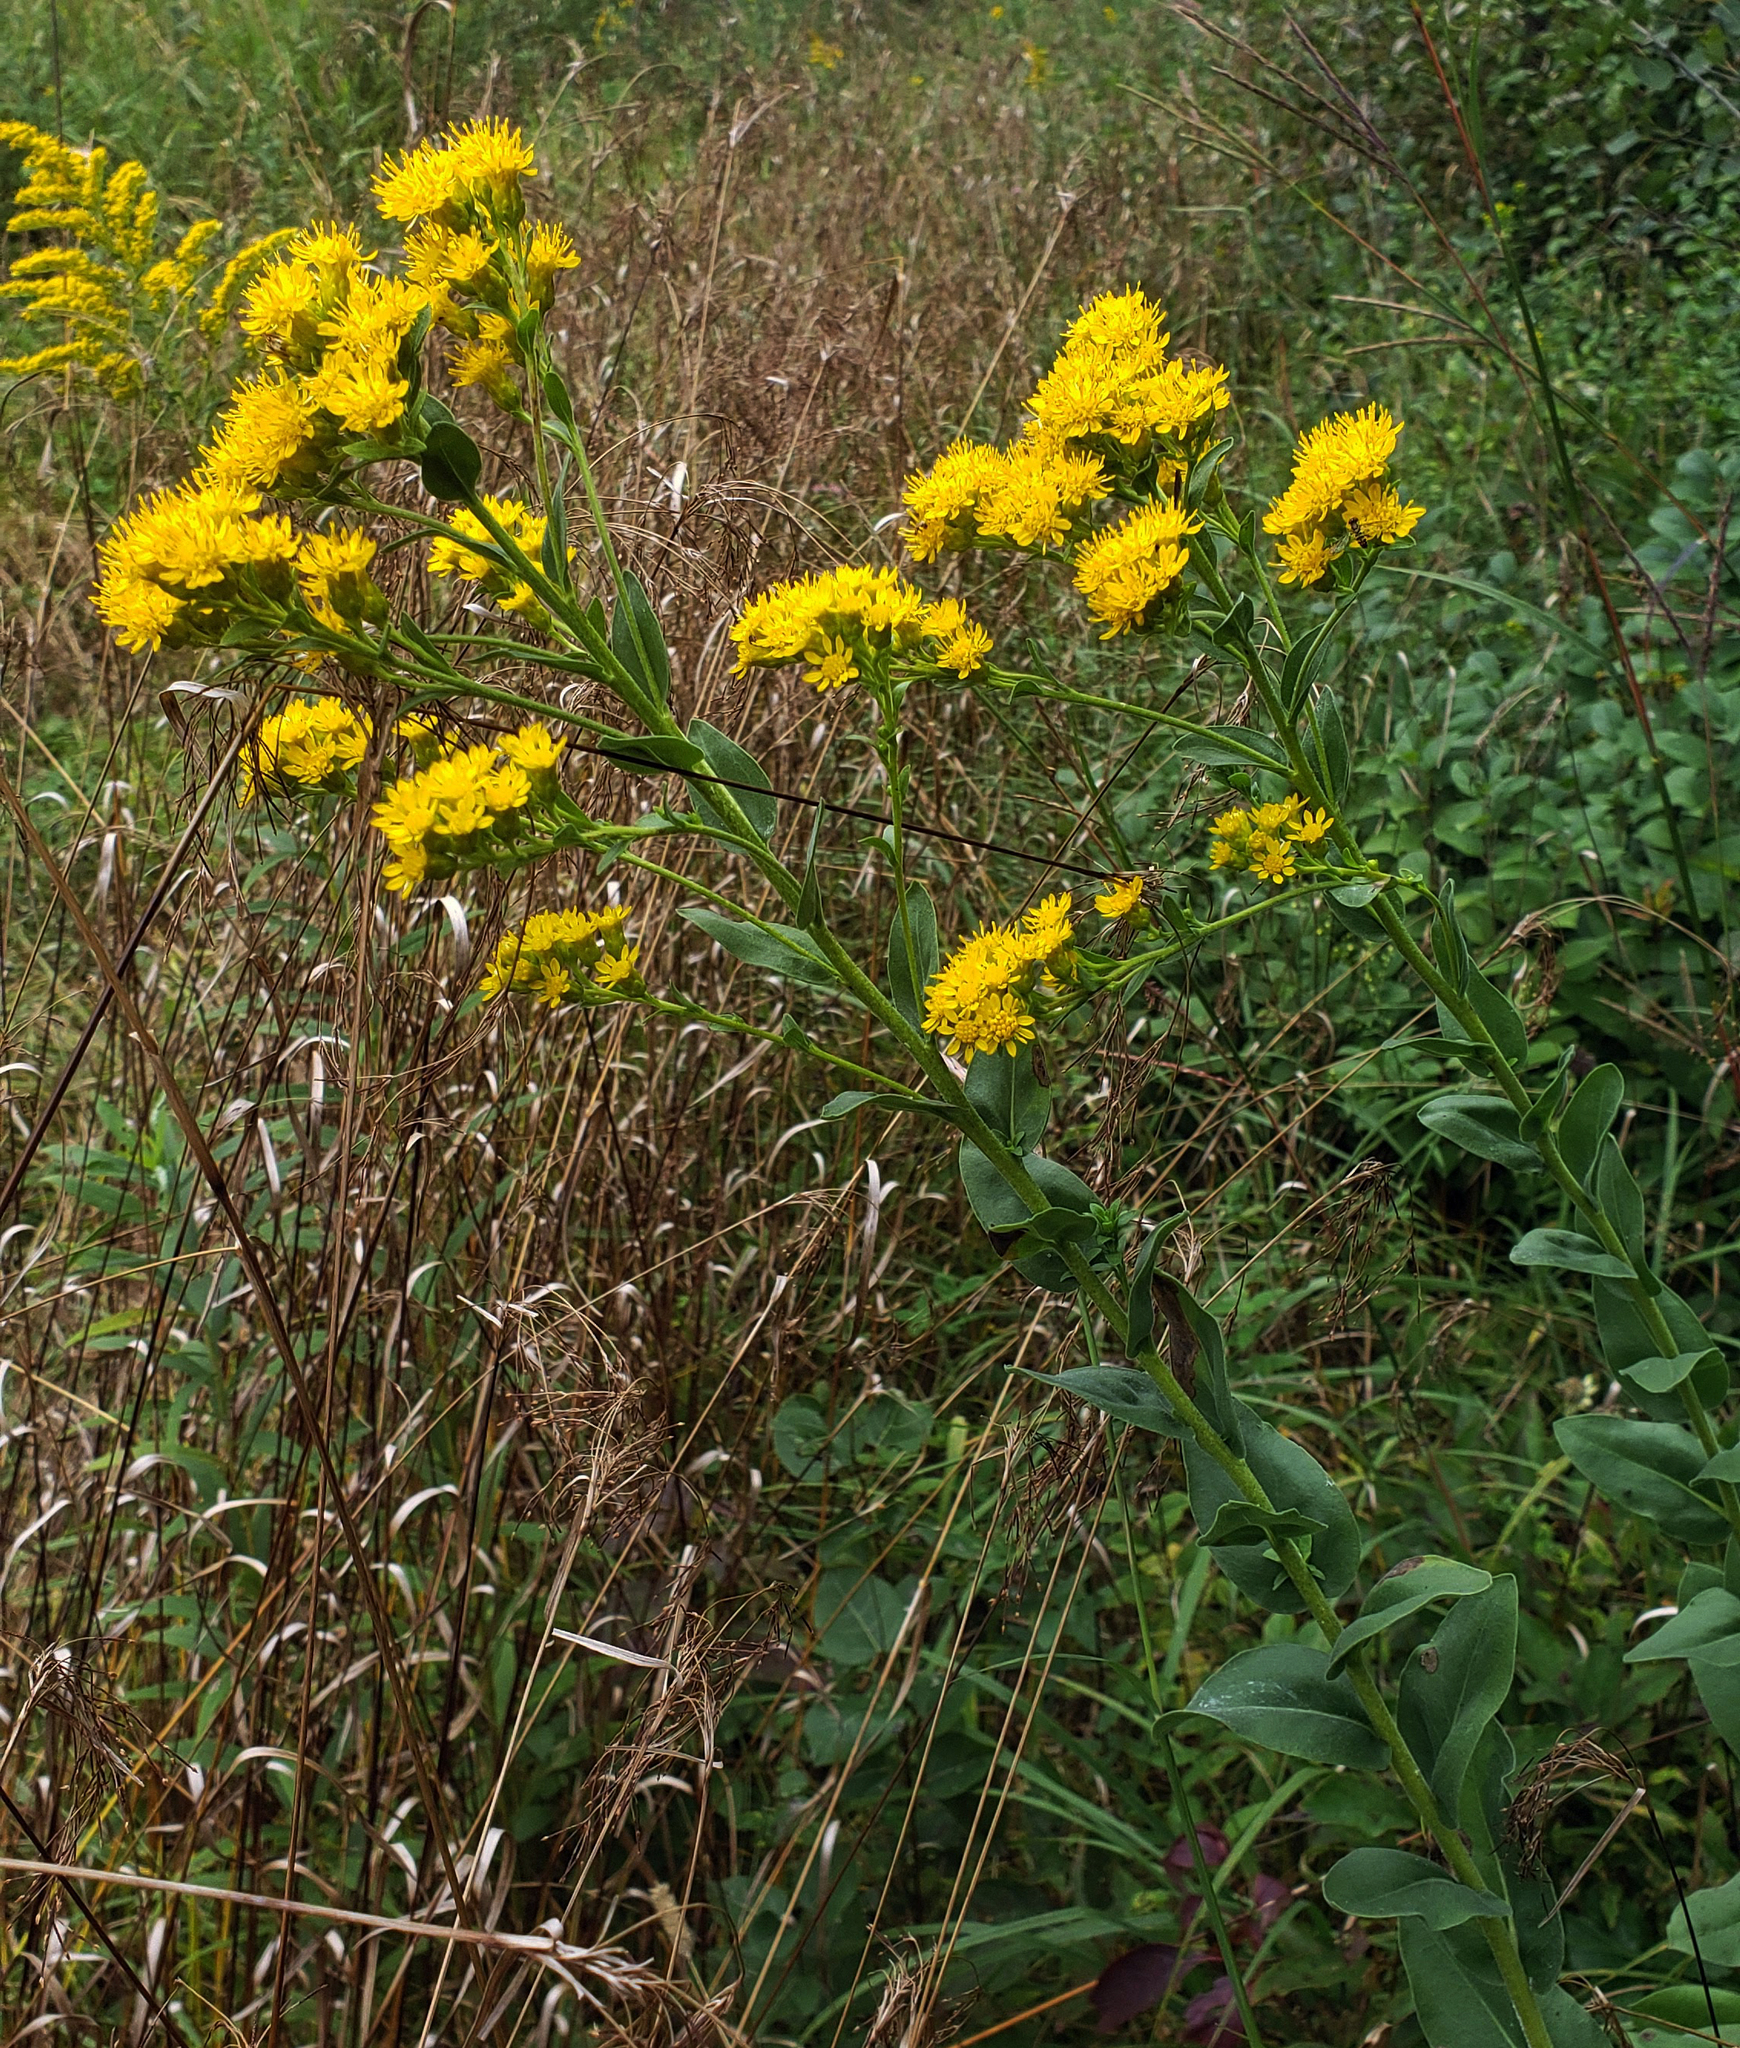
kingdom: Plantae
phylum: Tracheophyta
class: Magnoliopsida
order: Asterales
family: Asteraceae
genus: Solidago
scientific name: Solidago rigida
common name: Rigid goldenrod
